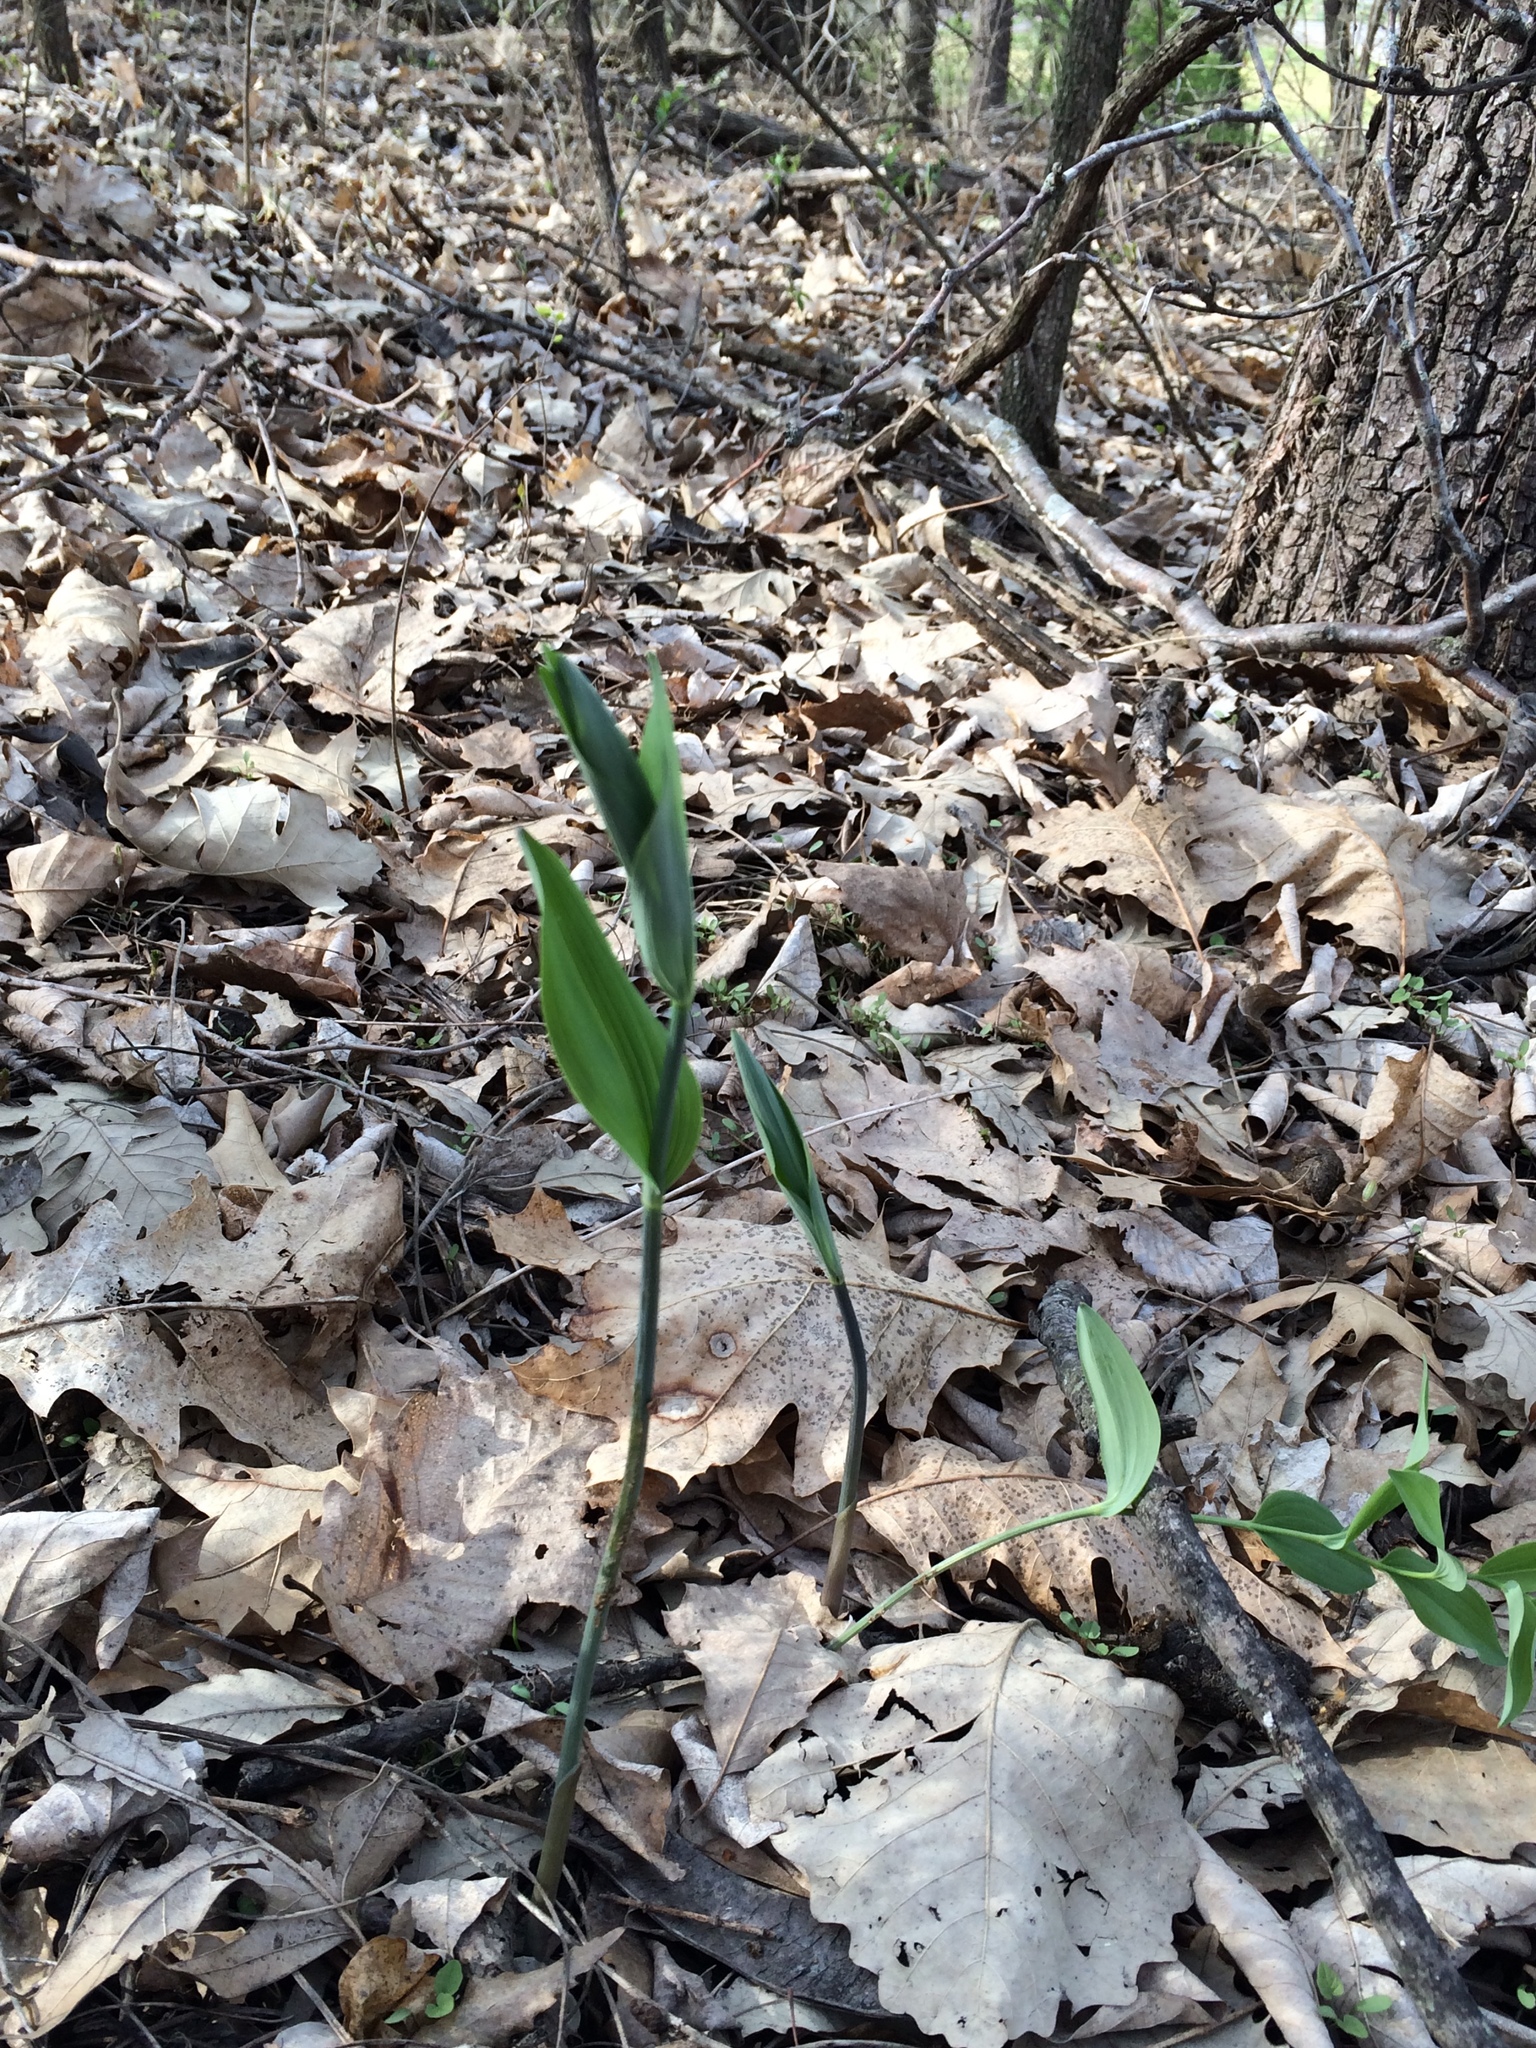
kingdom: Plantae
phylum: Tracheophyta
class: Liliopsida
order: Asparagales
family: Asparagaceae
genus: Polygonatum
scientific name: Polygonatum biflorum
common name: American solomon's-seal
